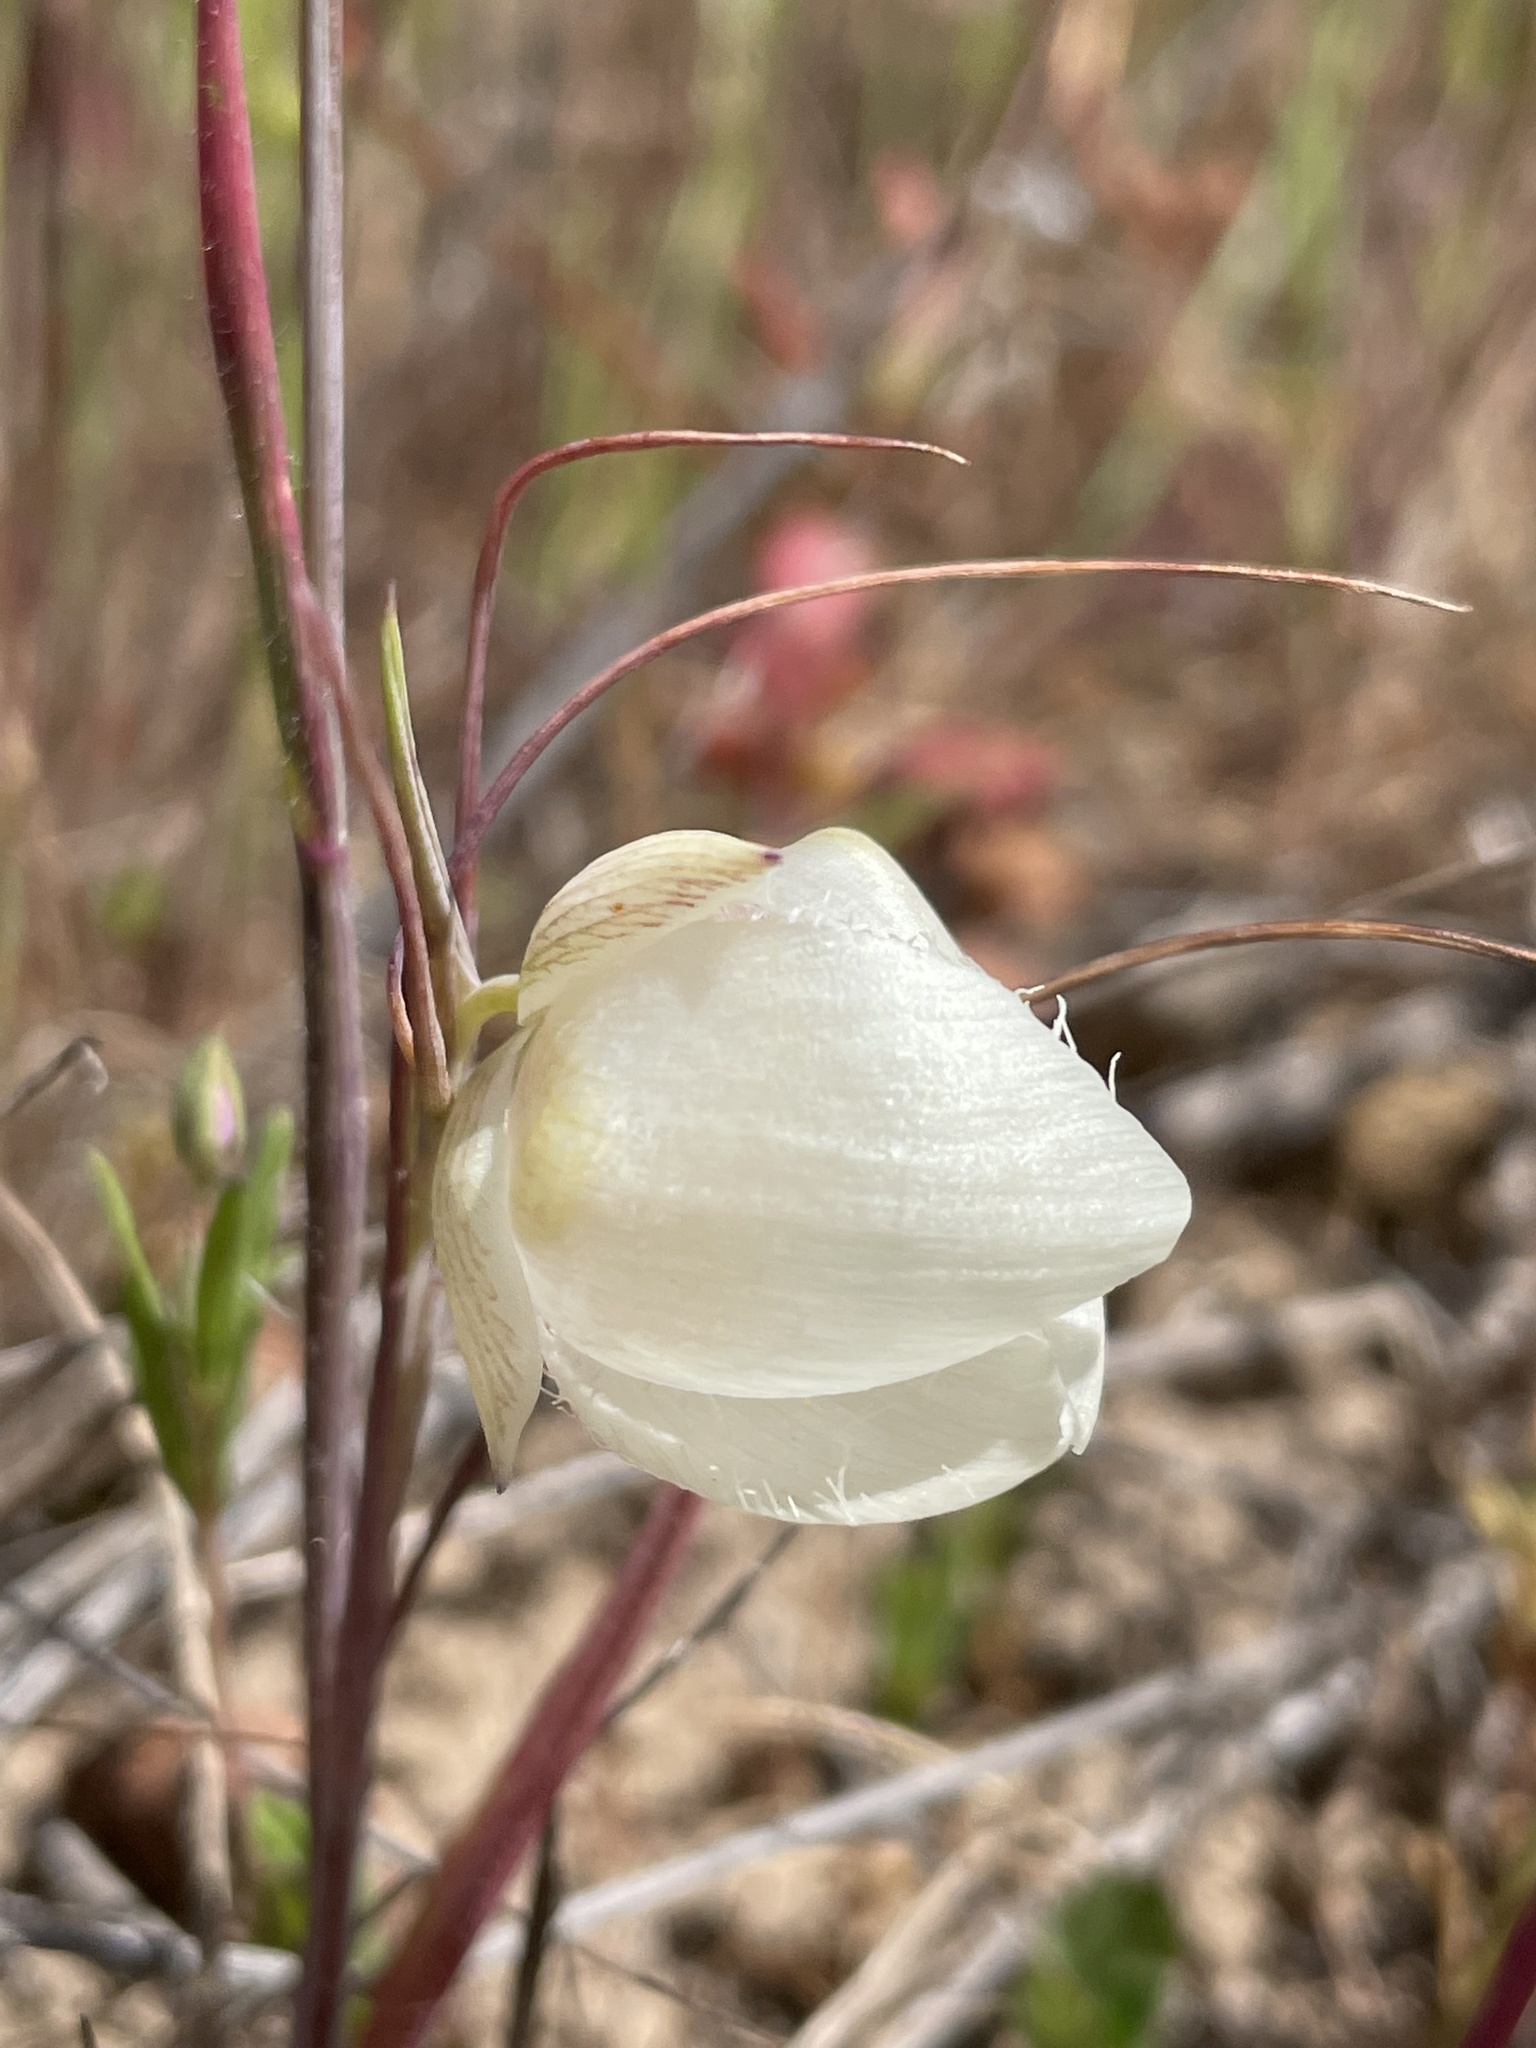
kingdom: Plantae
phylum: Tracheophyta
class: Liliopsida
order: Liliales
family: Liliaceae
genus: Calochortus
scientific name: Calochortus albus
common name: Fairy-lantern
